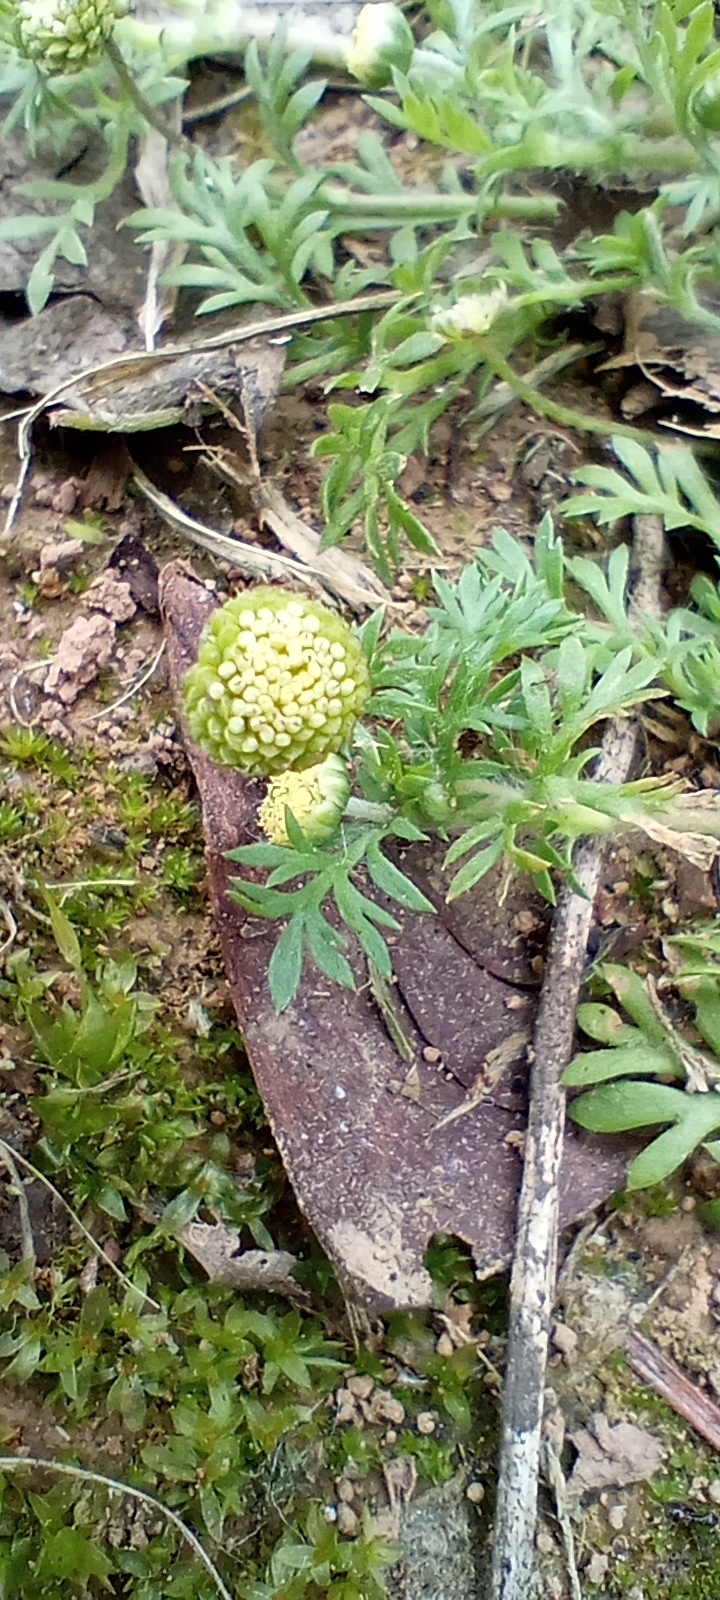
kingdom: Plantae
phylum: Tracheophyta
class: Magnoliopsida
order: Asterales
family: Asteraceae
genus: Cotula
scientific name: Cotula australis
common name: Australian waterbuttons
